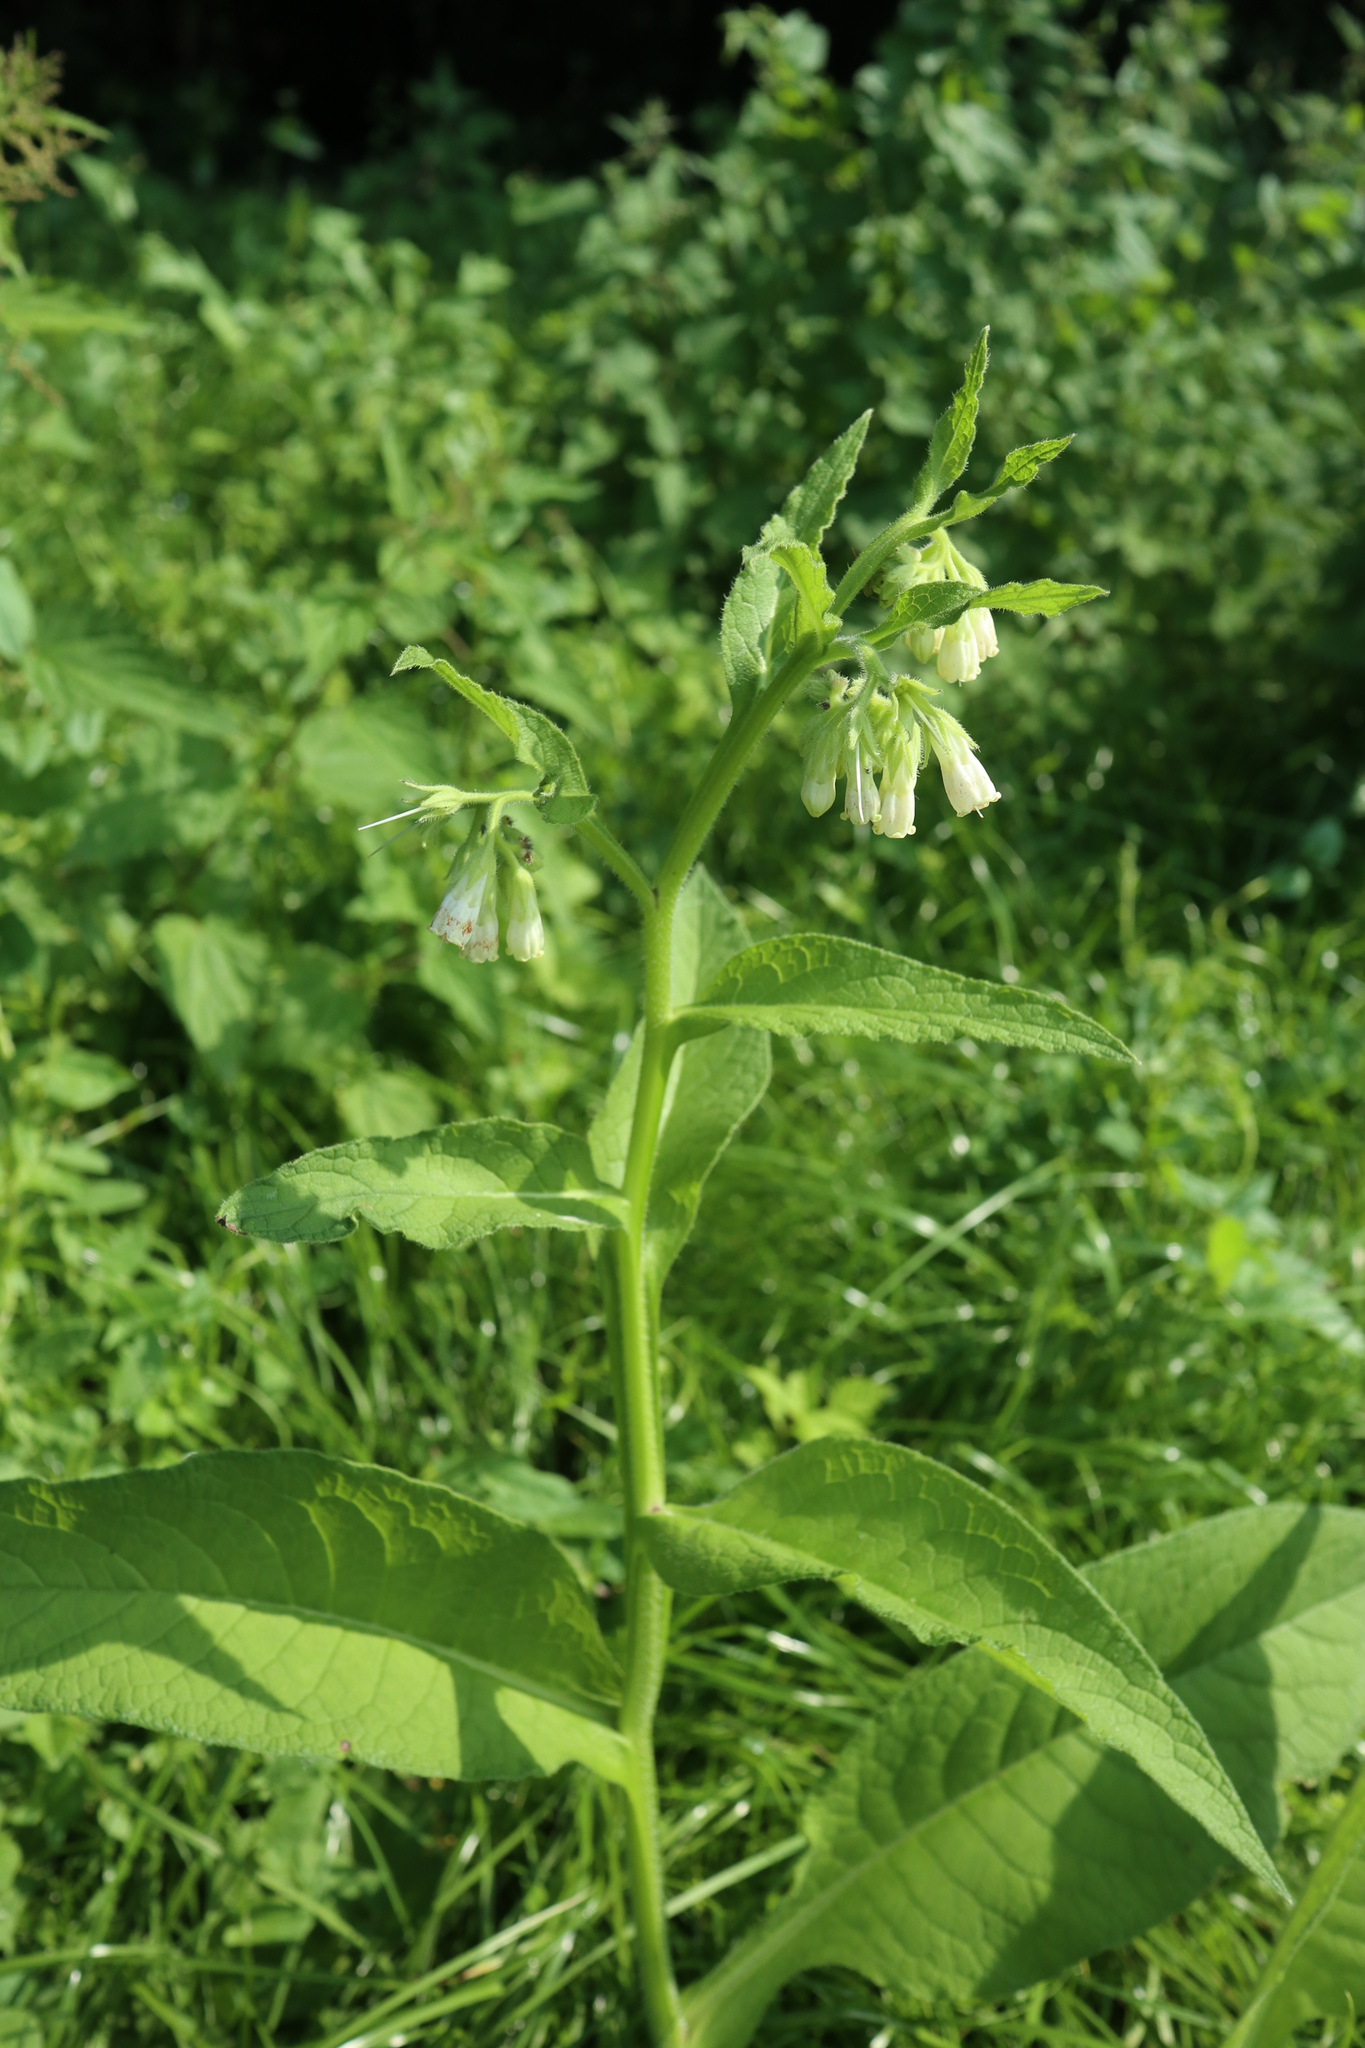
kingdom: Plantae
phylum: Tracheophyta
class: Magnoliopsida
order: Boraginales
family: Boraginaceae
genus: Symphytum
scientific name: Symphytum officinale
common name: Common comfrey
